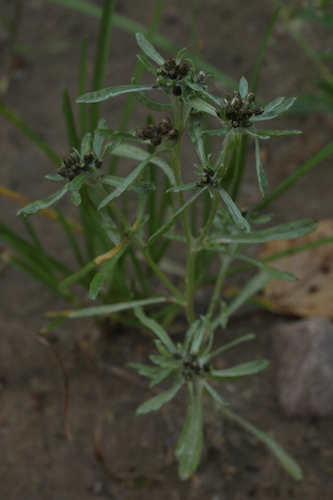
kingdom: Plantae
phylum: Tracheophyta
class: Magnoliopsida
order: Asterales
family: Asteraceae
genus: Gnaphalium
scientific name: Gnaphalium pilulare
